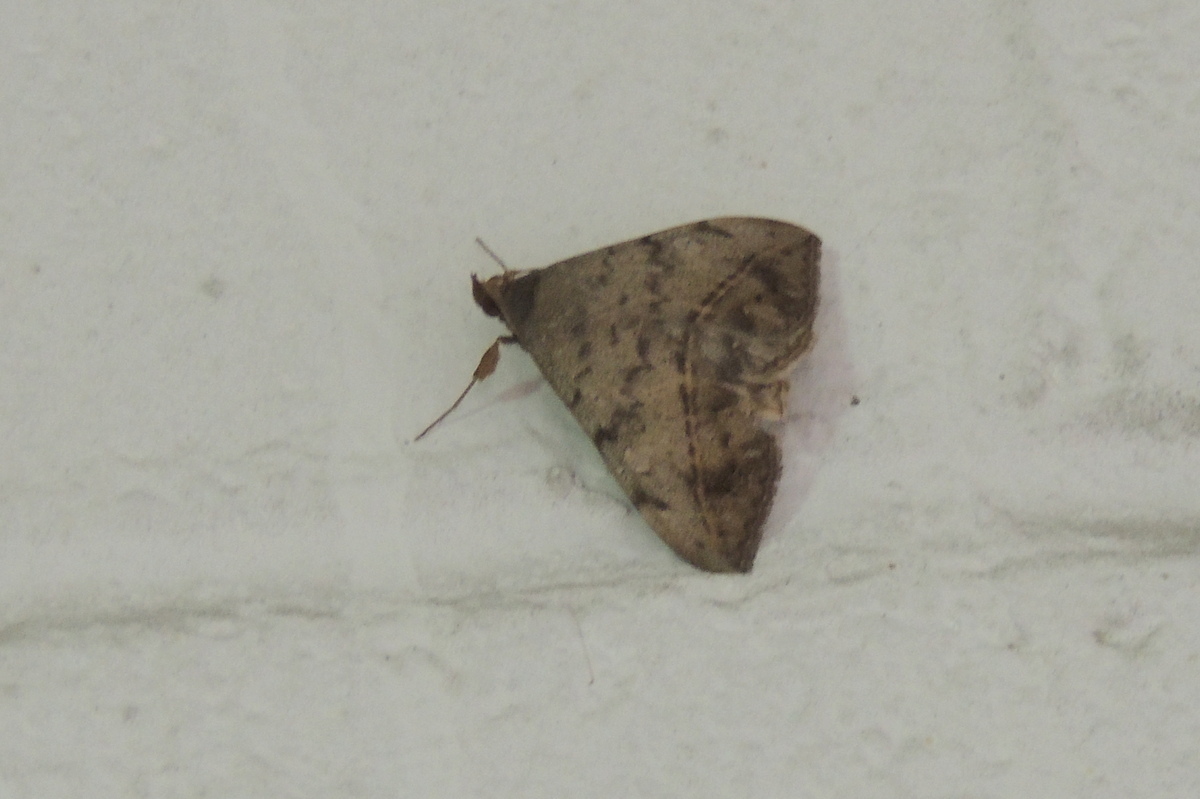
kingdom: Animalia
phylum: Arthropoda
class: Insecta
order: Lepidoptera
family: Erebidae
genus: Anticarsia
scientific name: Anticarsia gemmatalis
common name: Cutworm moth
